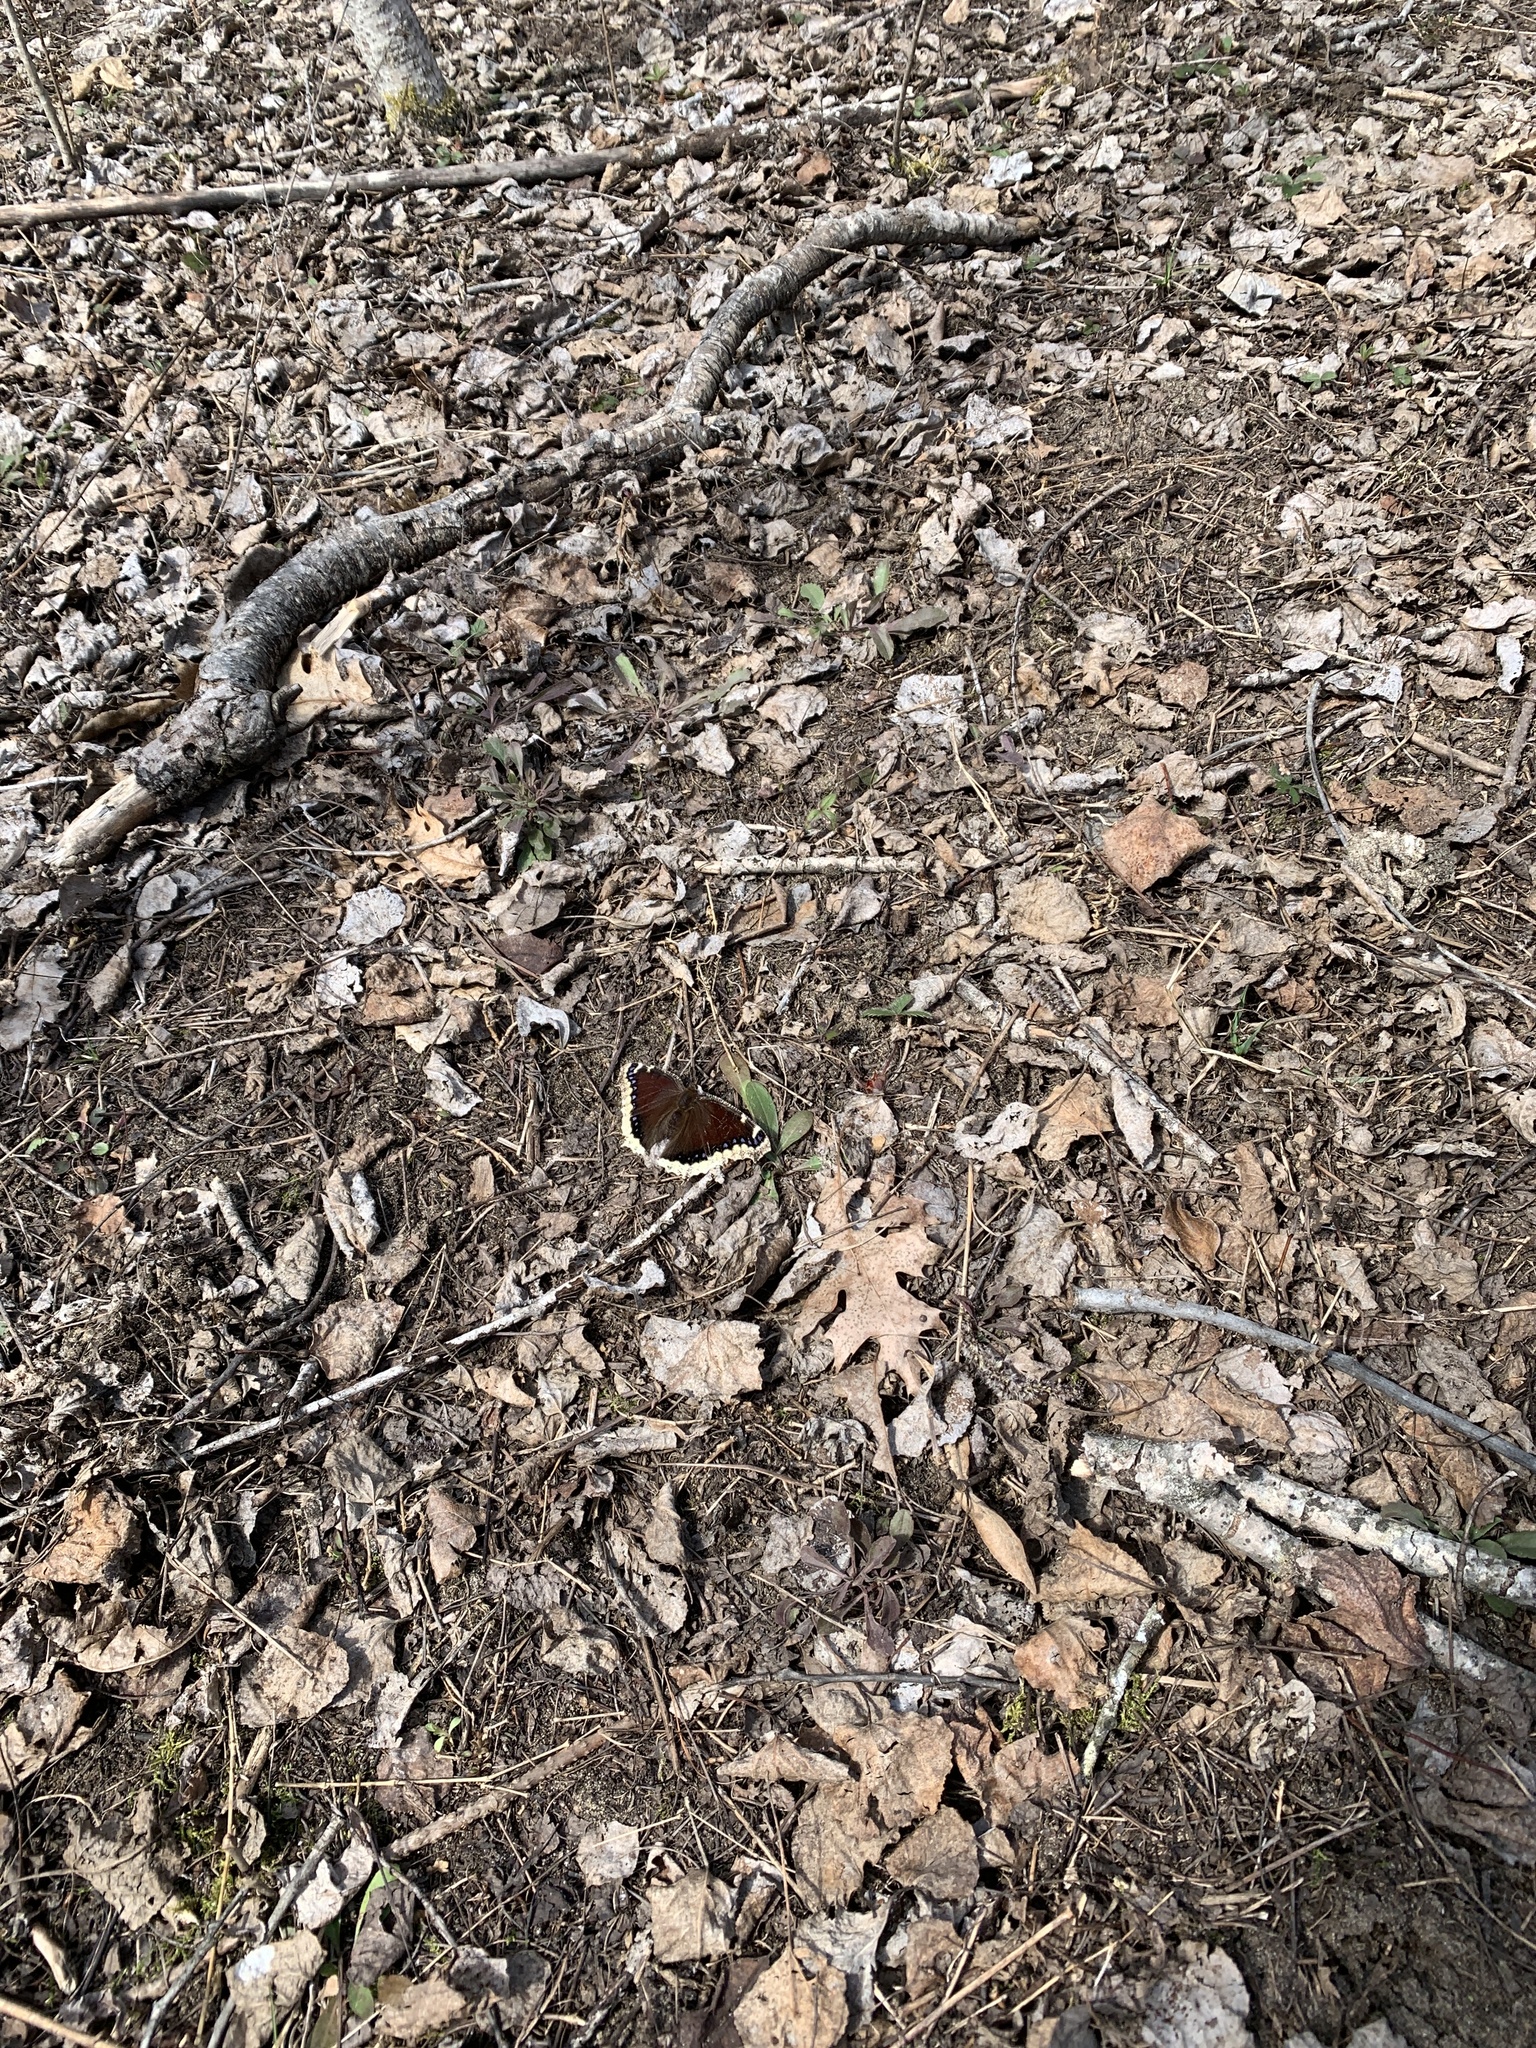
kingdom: Animalia
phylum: Arthropoda
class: Insecta
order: Lepidoptera
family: Nymphalidae
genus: Nymphalis
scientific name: Nymphalis antiopa
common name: Camberwell beauty
